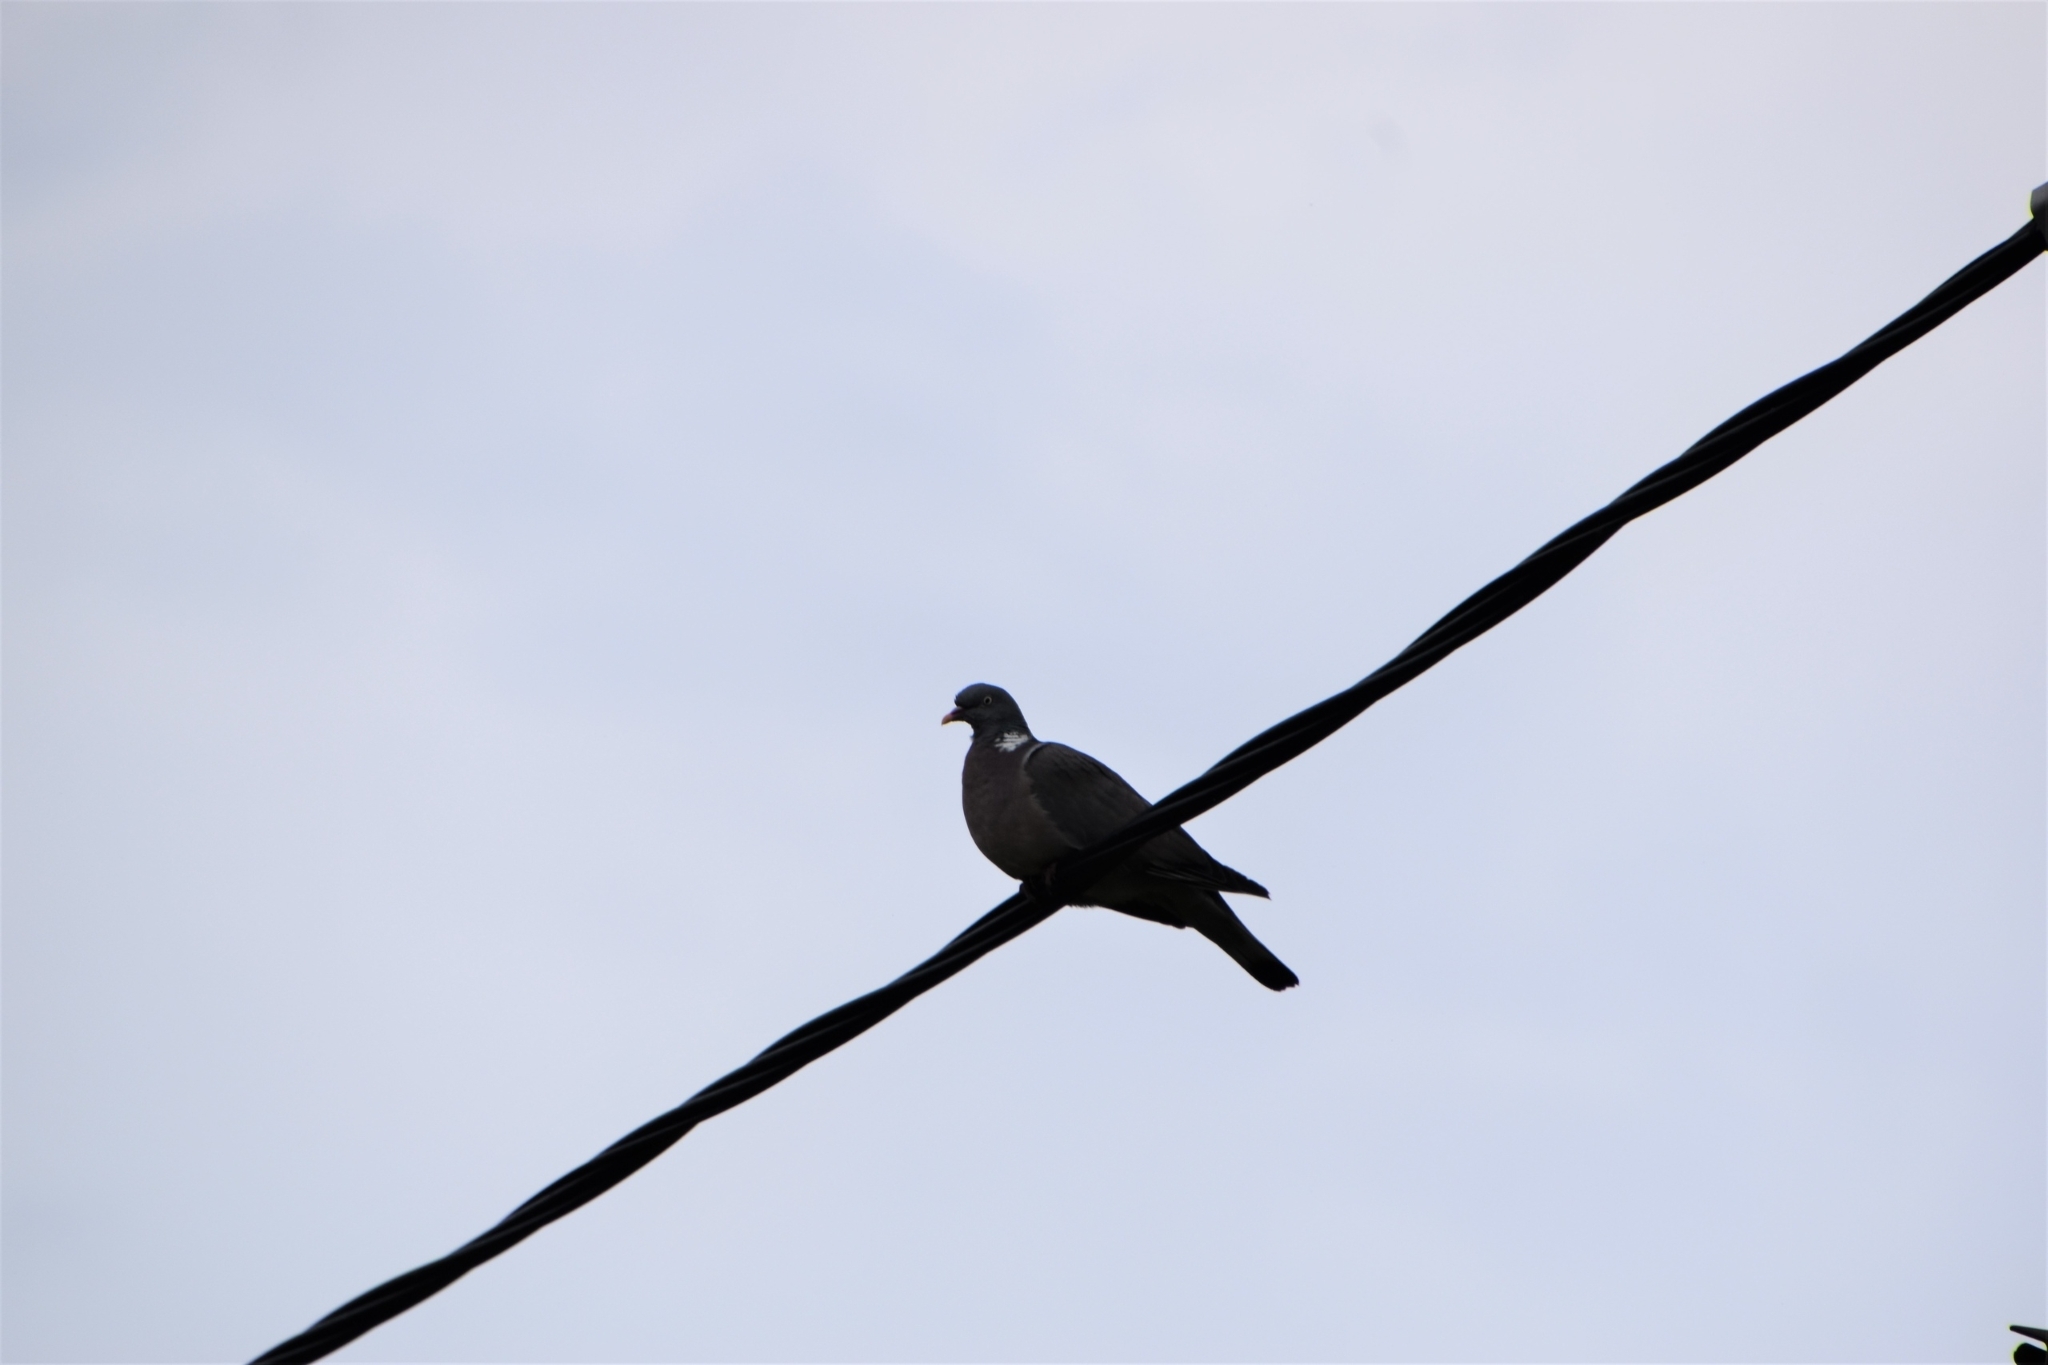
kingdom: Animalia
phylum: Chordata
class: Aves
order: Columbiformes
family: Columbidae
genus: Columba
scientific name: Columba palumbus
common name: Common wood pigeon
